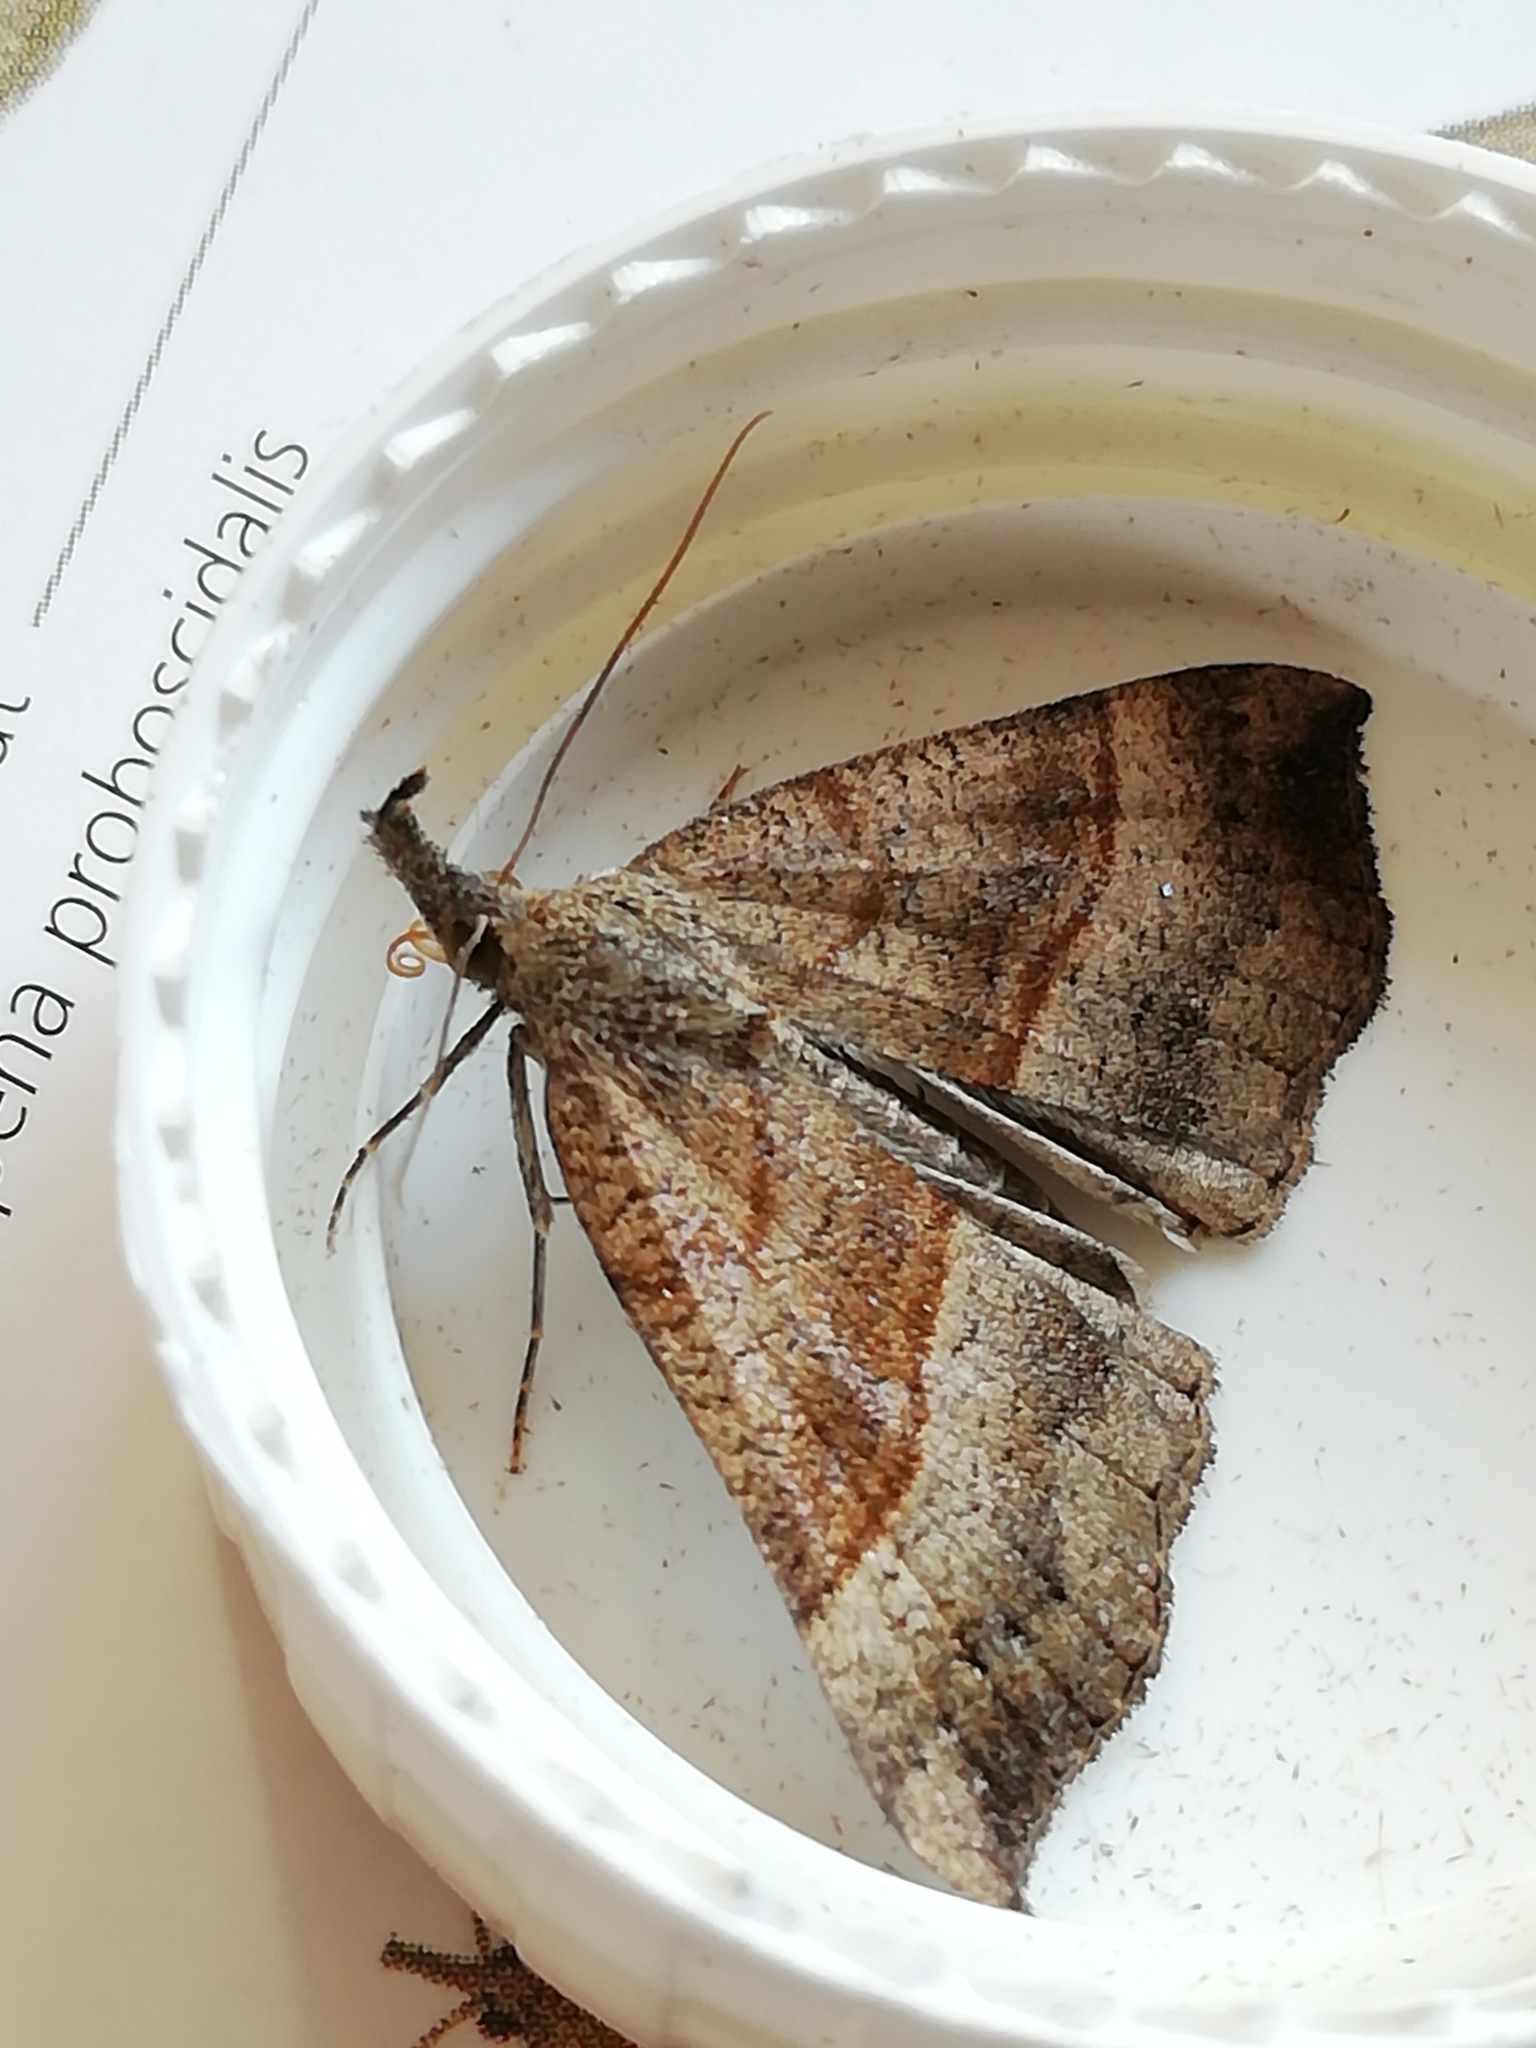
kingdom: Animalia
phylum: Arthropoda
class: Insecta
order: Lepidoptera
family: Erebidae
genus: Hypena
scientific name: Hypena proboscidalis
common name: Snout
